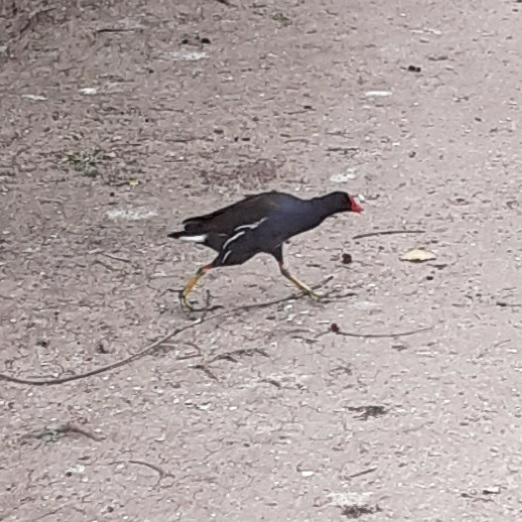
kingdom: Animalia
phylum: Chordata
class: Aves
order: Gruiformes
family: Rallidae
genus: Gallinula
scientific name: Gallinula chloropus
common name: Common moorhen
